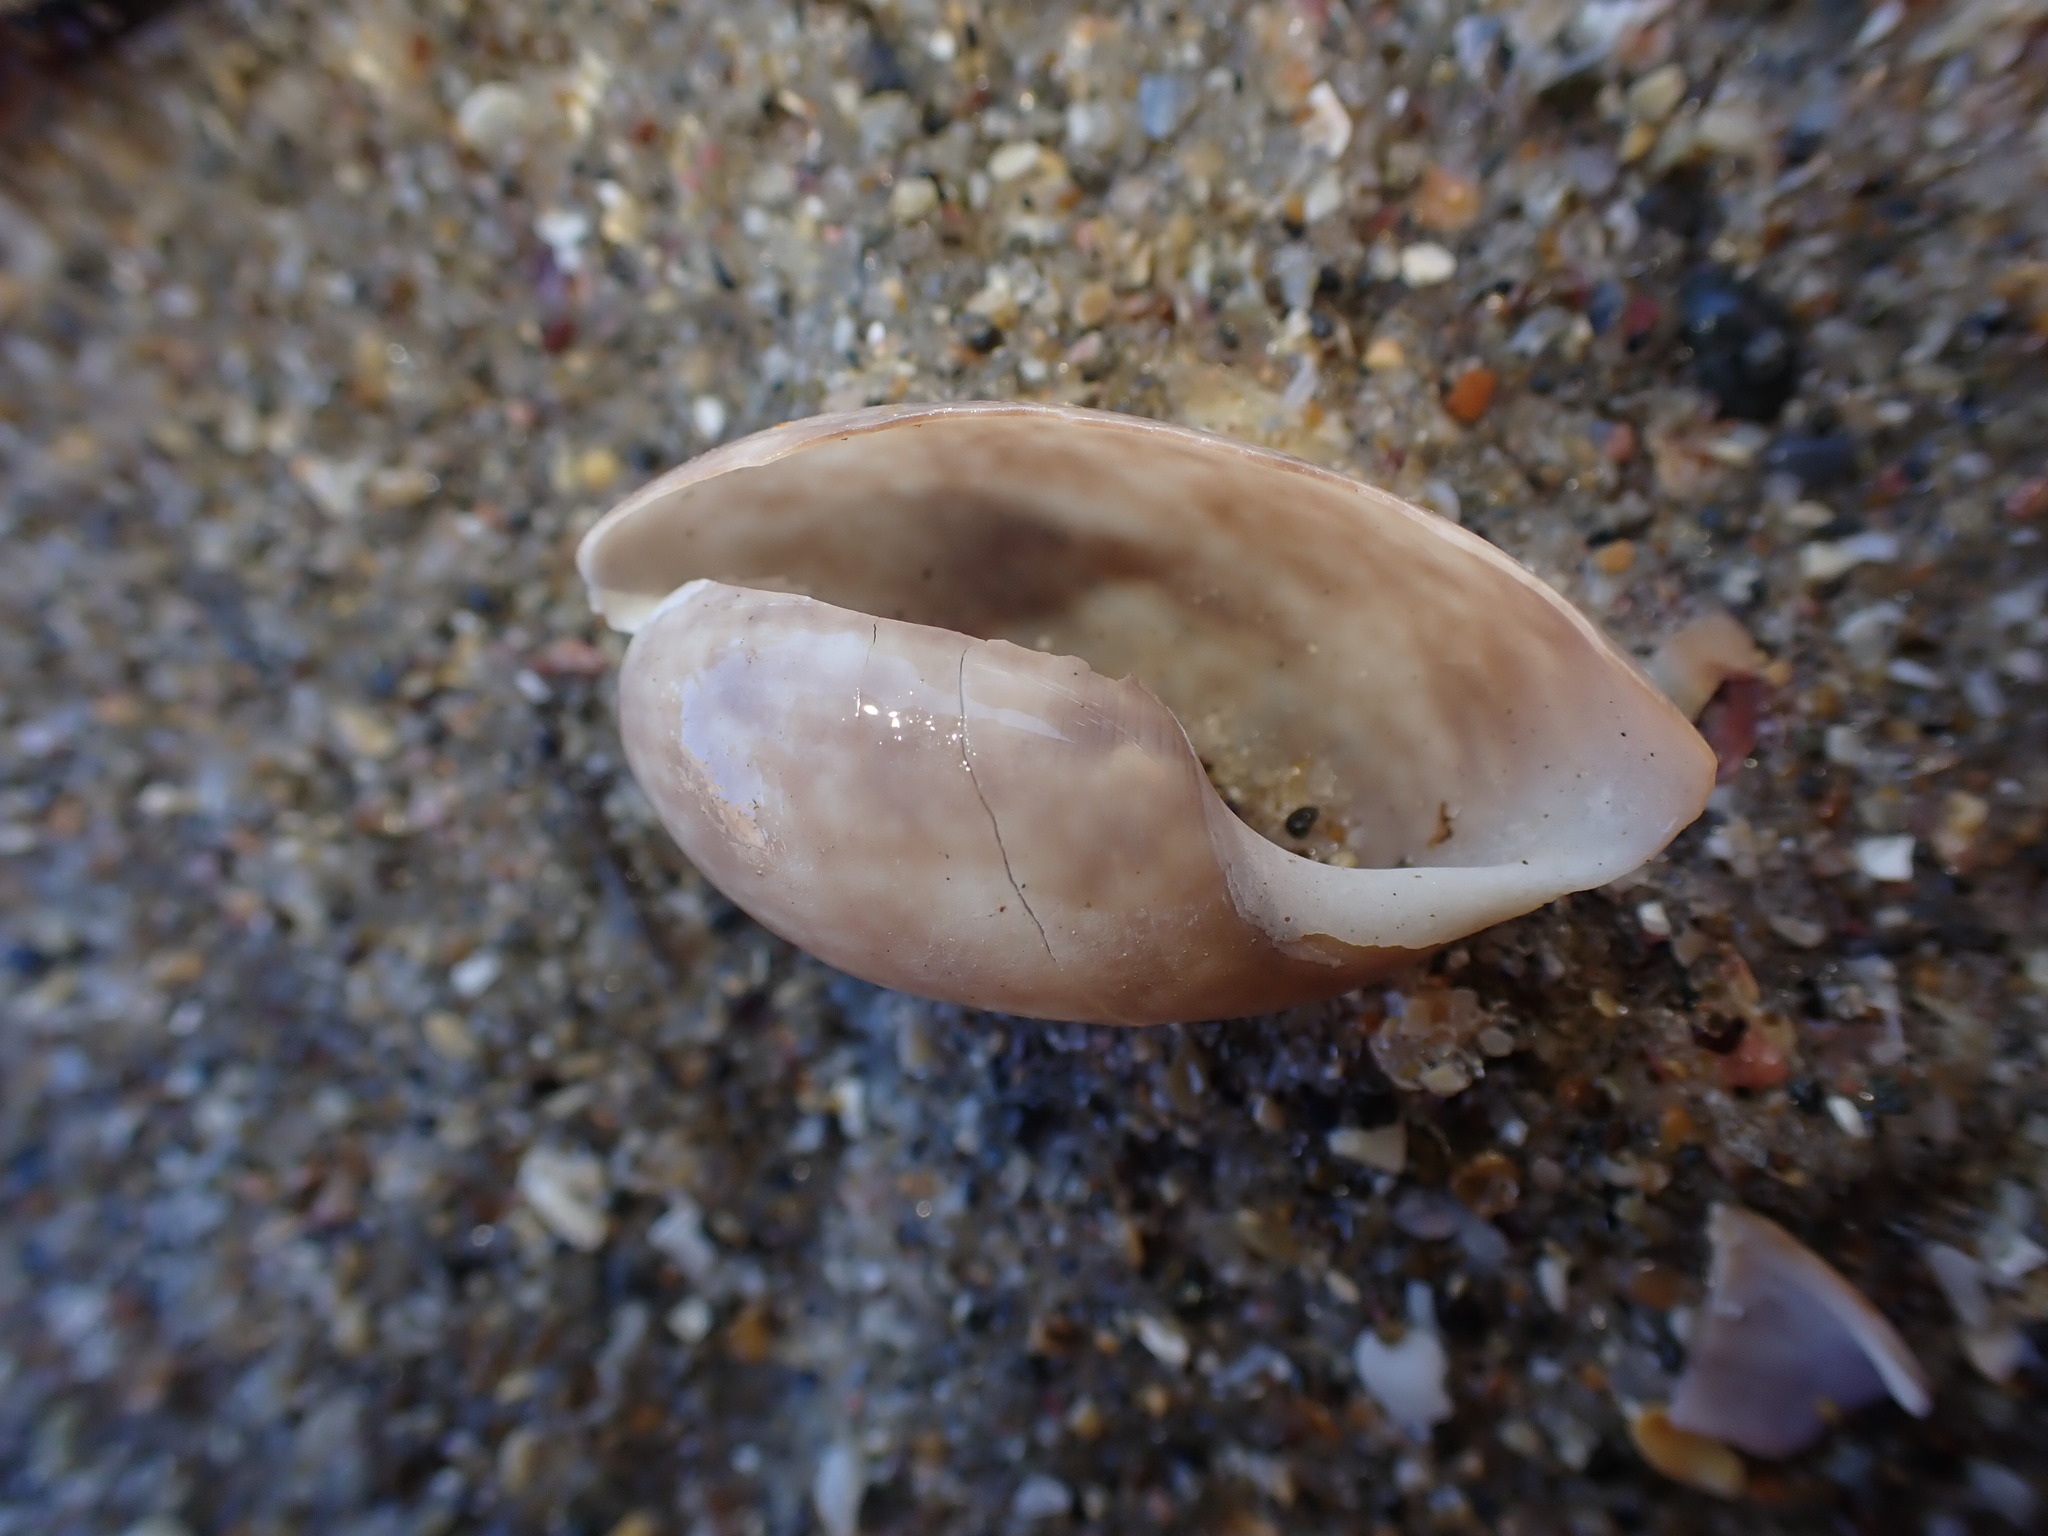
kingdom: Animalia
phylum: Mollusca
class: Gastropoda
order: Cephalaspidea
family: Bullidae
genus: Bulla
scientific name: Bulla quoyii
